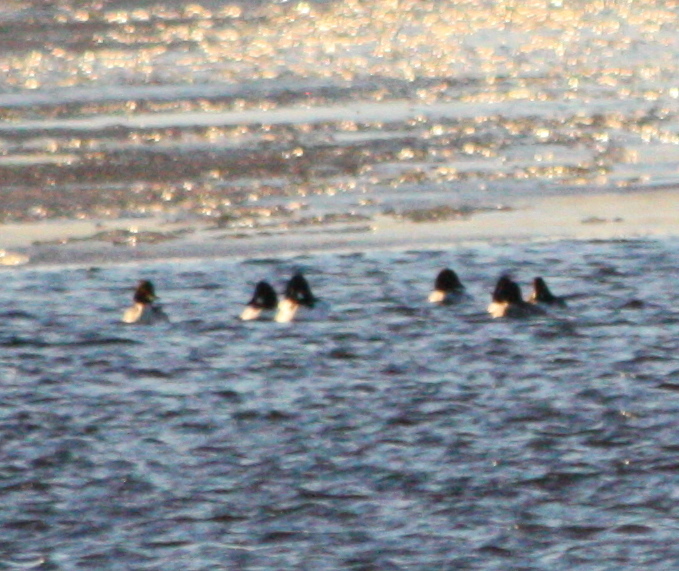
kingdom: Animalia
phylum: Chordata
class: Aves
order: Anseriformes
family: Anatidae
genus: Bucephala
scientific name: Bucephala clangula
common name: Common goldeneye
